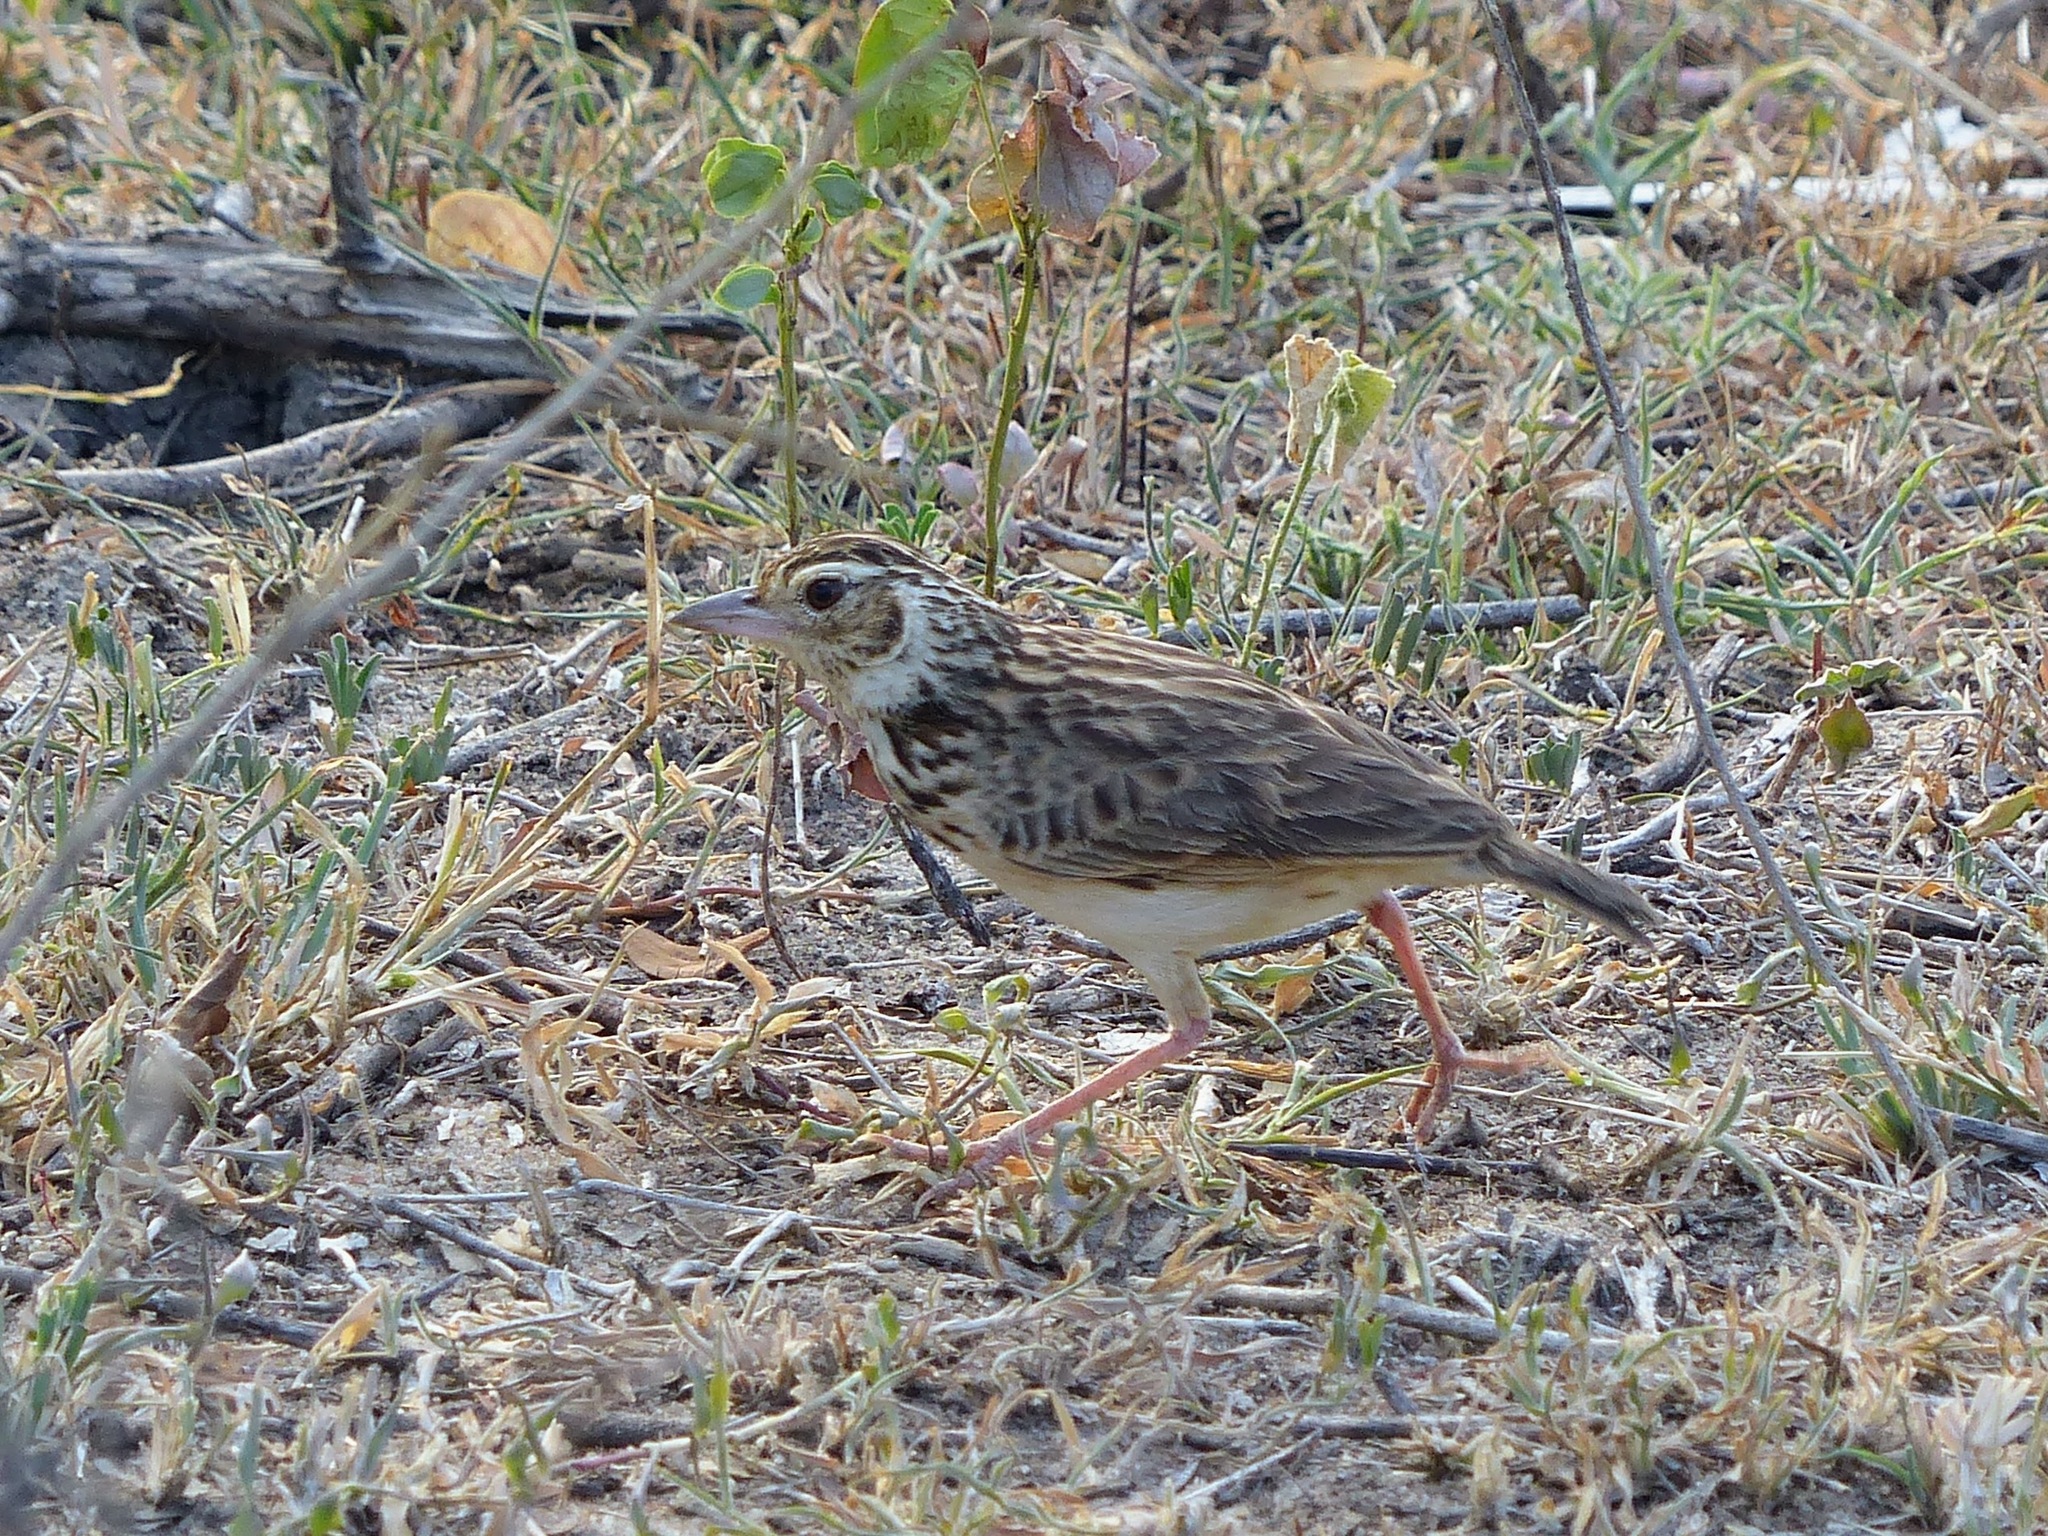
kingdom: Animalia
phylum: Chordata
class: Aves
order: Passeriformes
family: Alaudidae
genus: Mirafra
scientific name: Mirafra affinis
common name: Jerdon's bushlark
